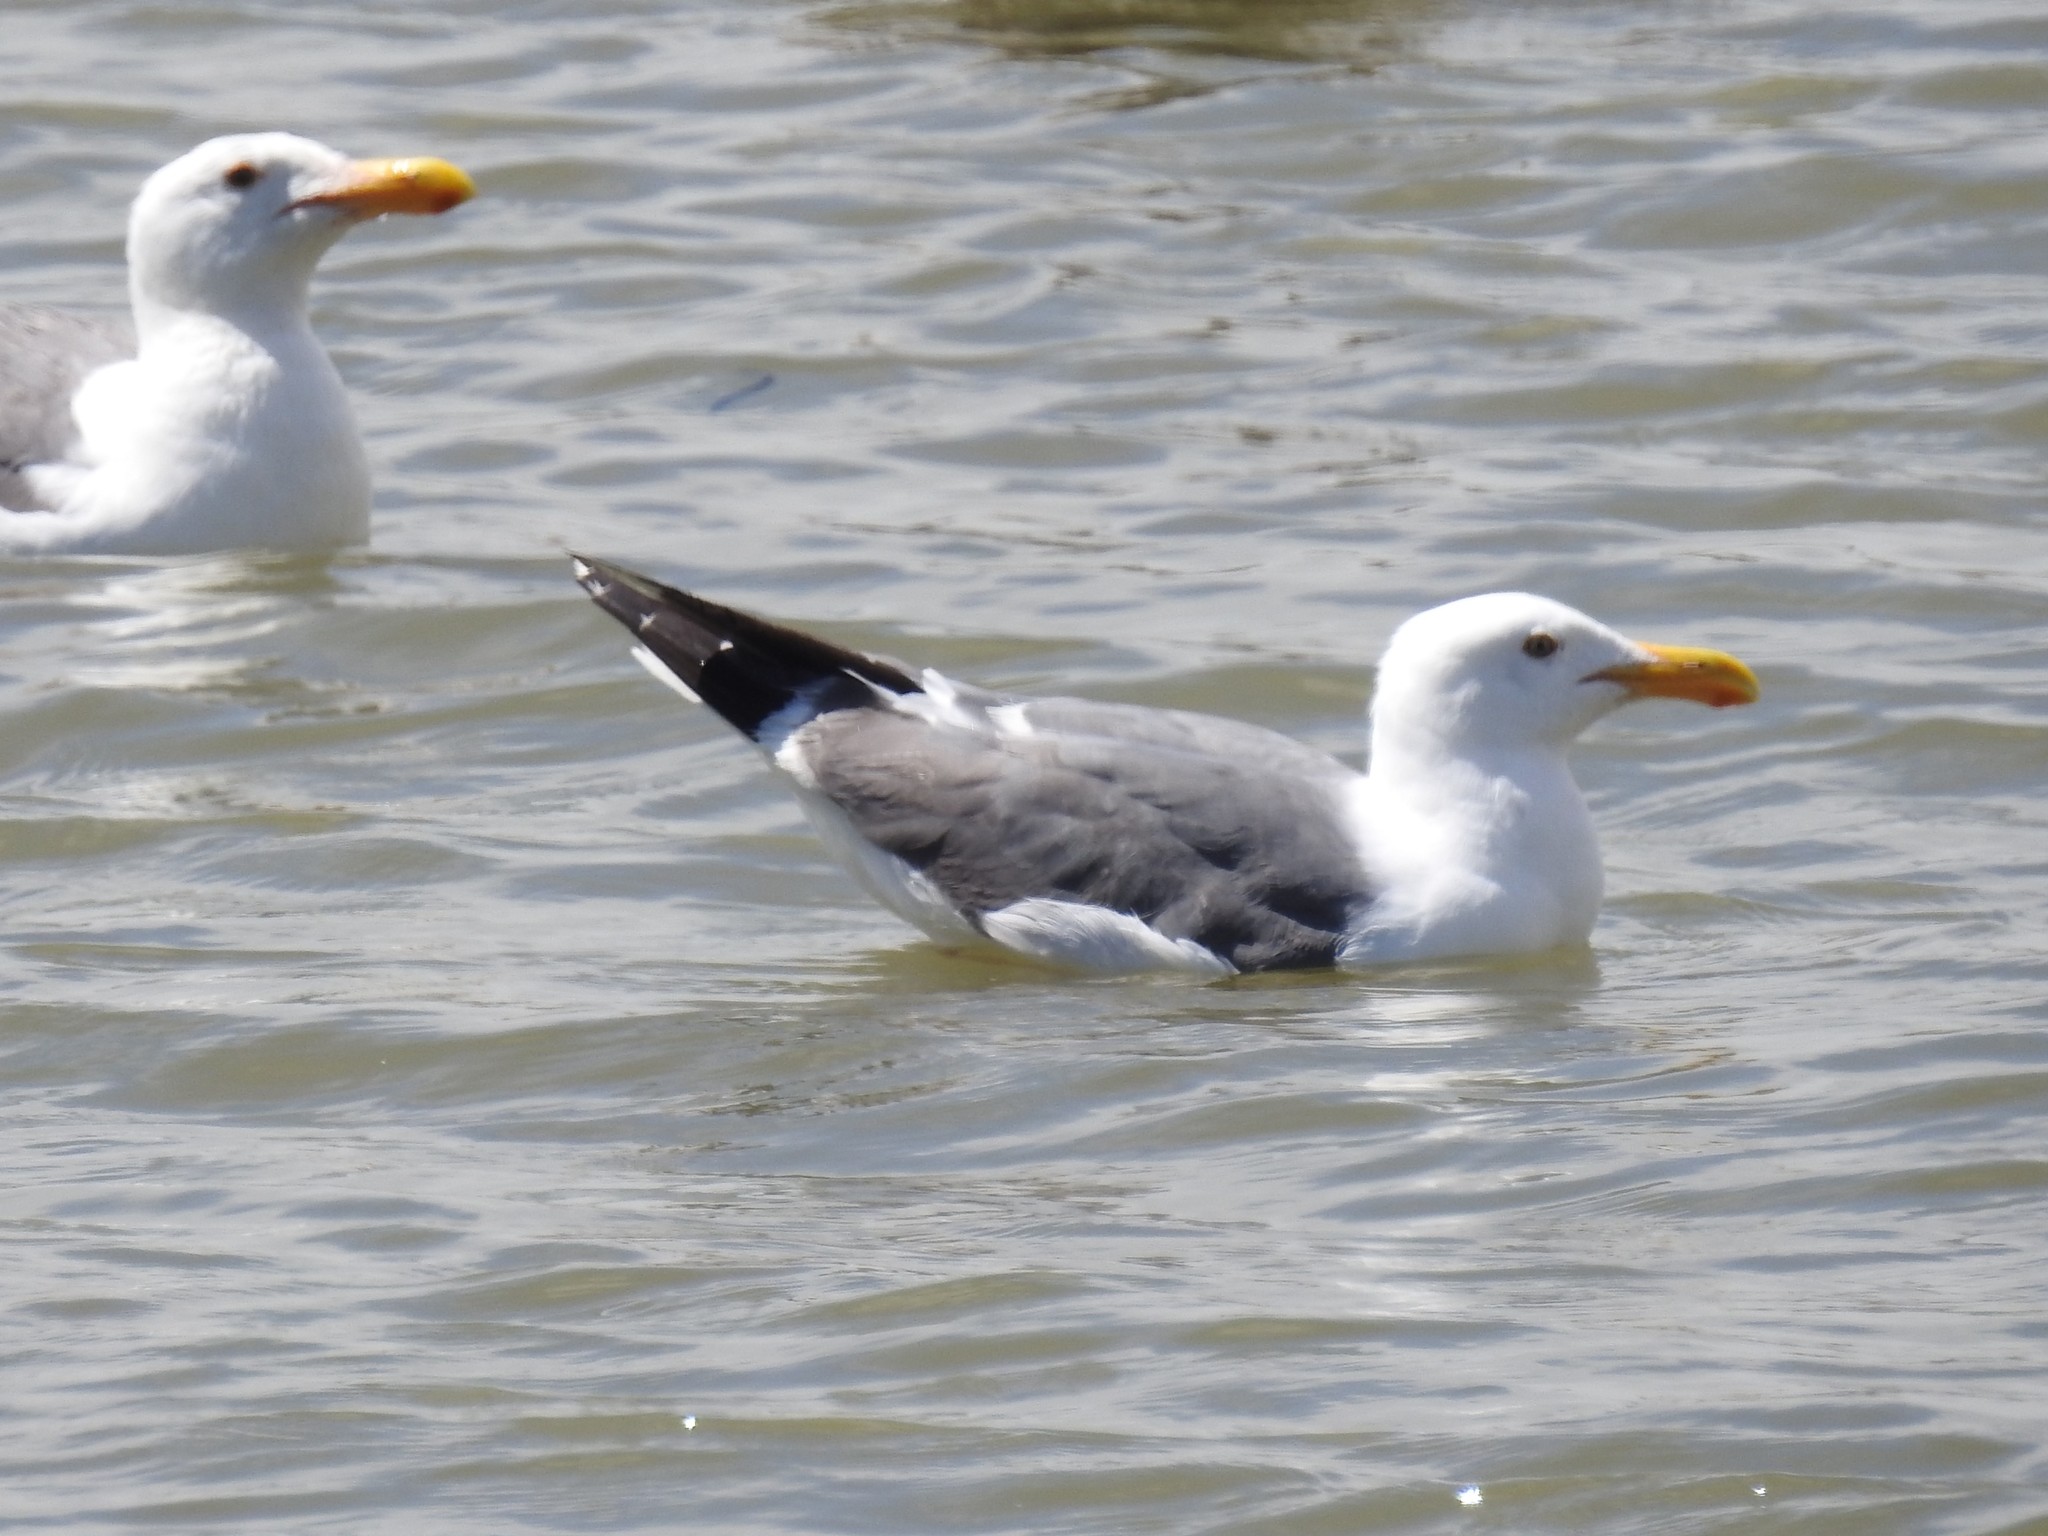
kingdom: Animalia
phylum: Chordata
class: Aves
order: Charadriiformes
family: Laridae
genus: Larus
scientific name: Larus occidentalis
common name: Western gull
